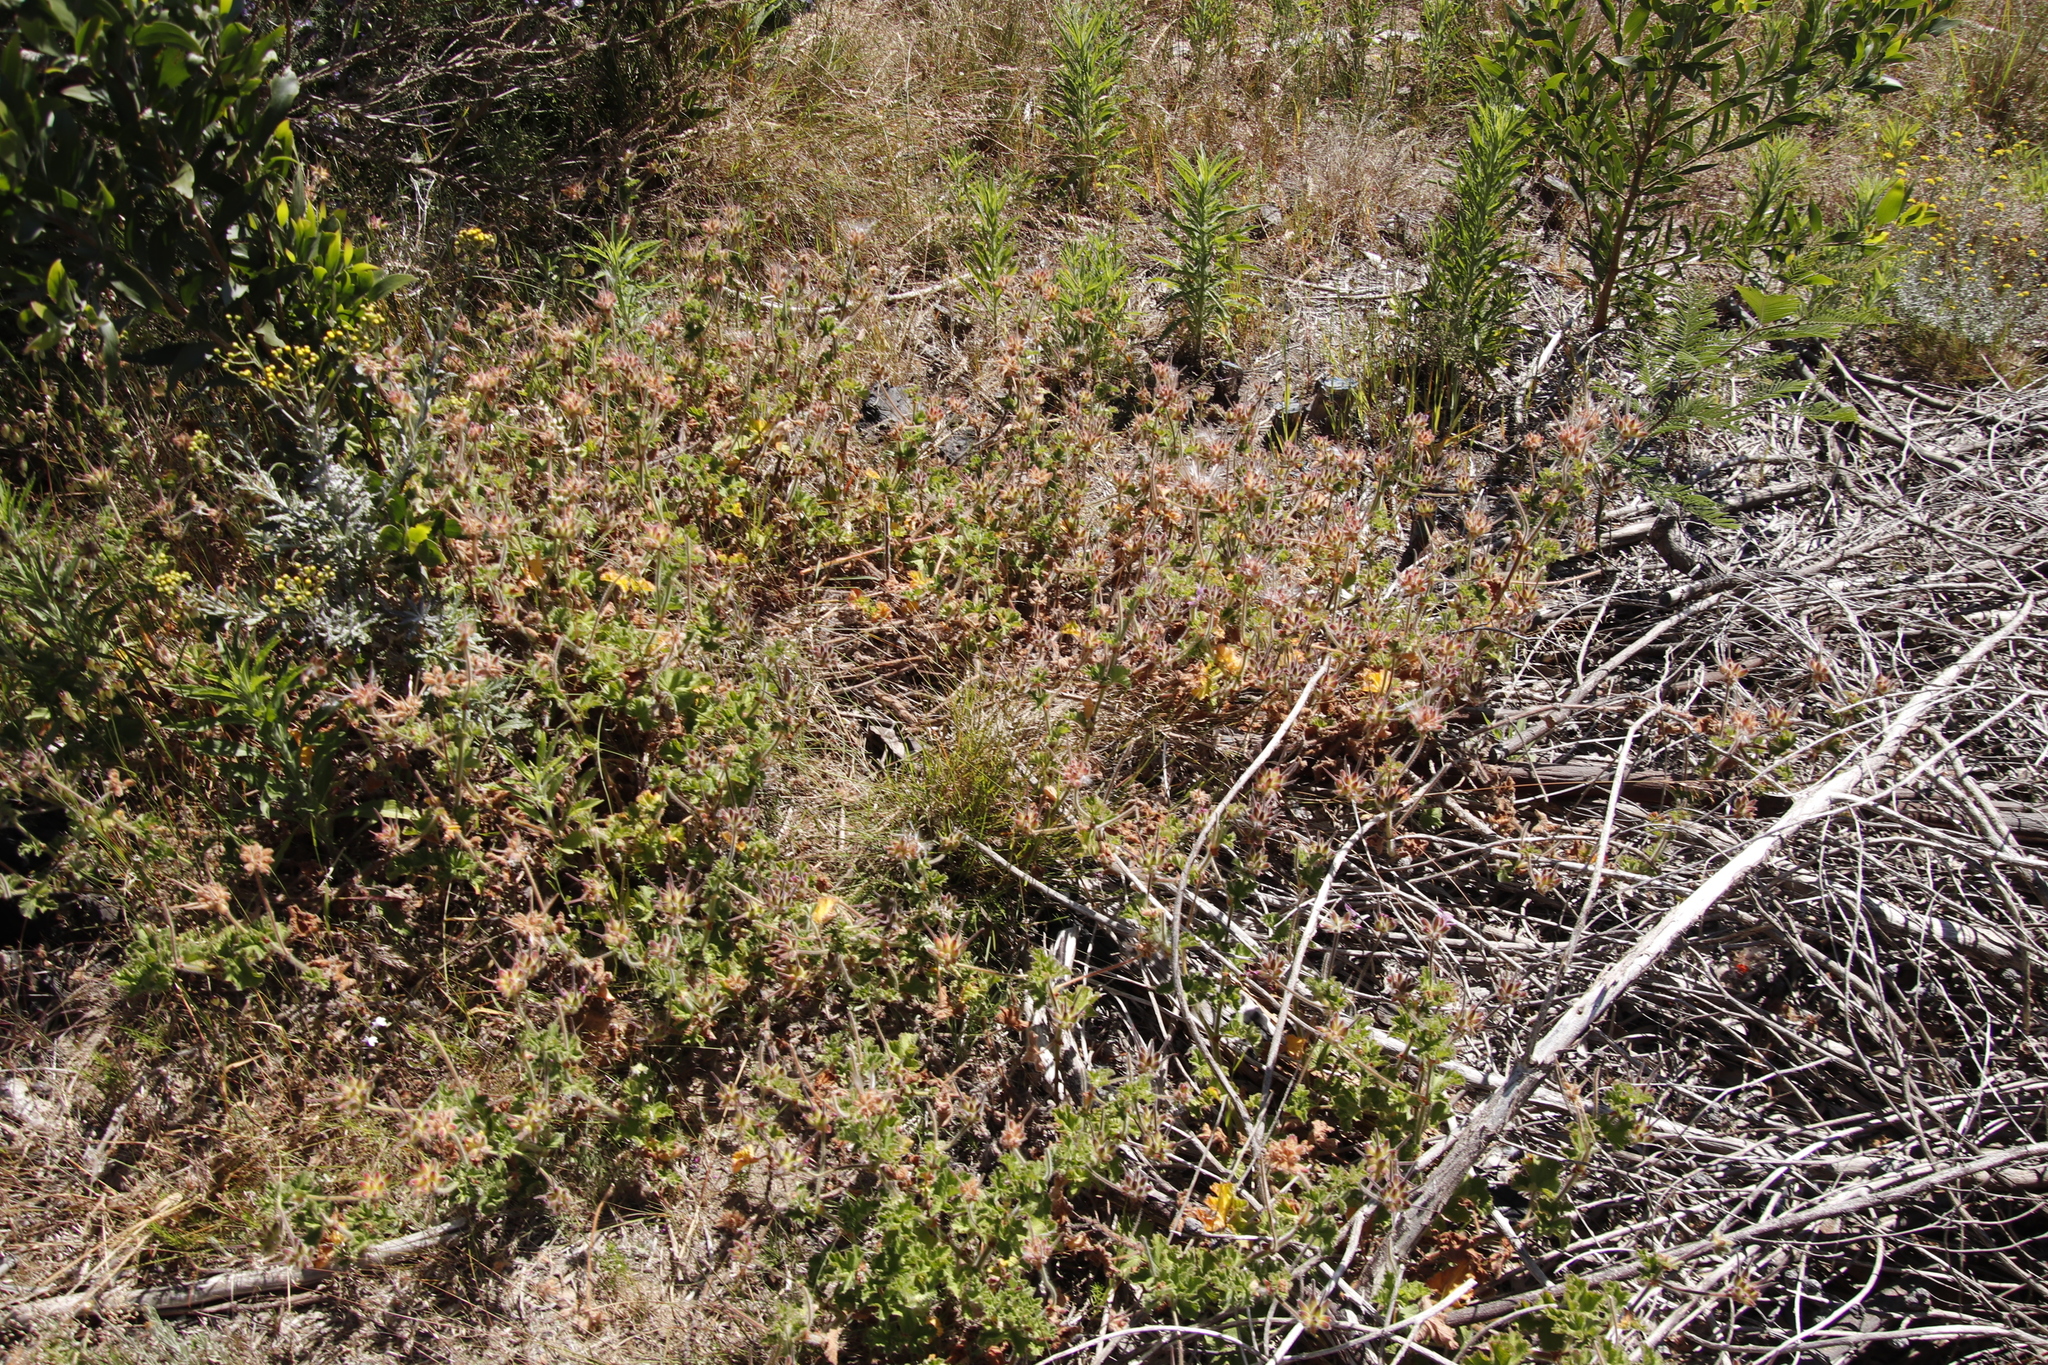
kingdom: Plantae
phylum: Tracheophyta
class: Magnoliopsida
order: Geraniales
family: Geraniaceae
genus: Pelargonium
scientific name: Pelargonium capitatum
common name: Rose scented geranium
